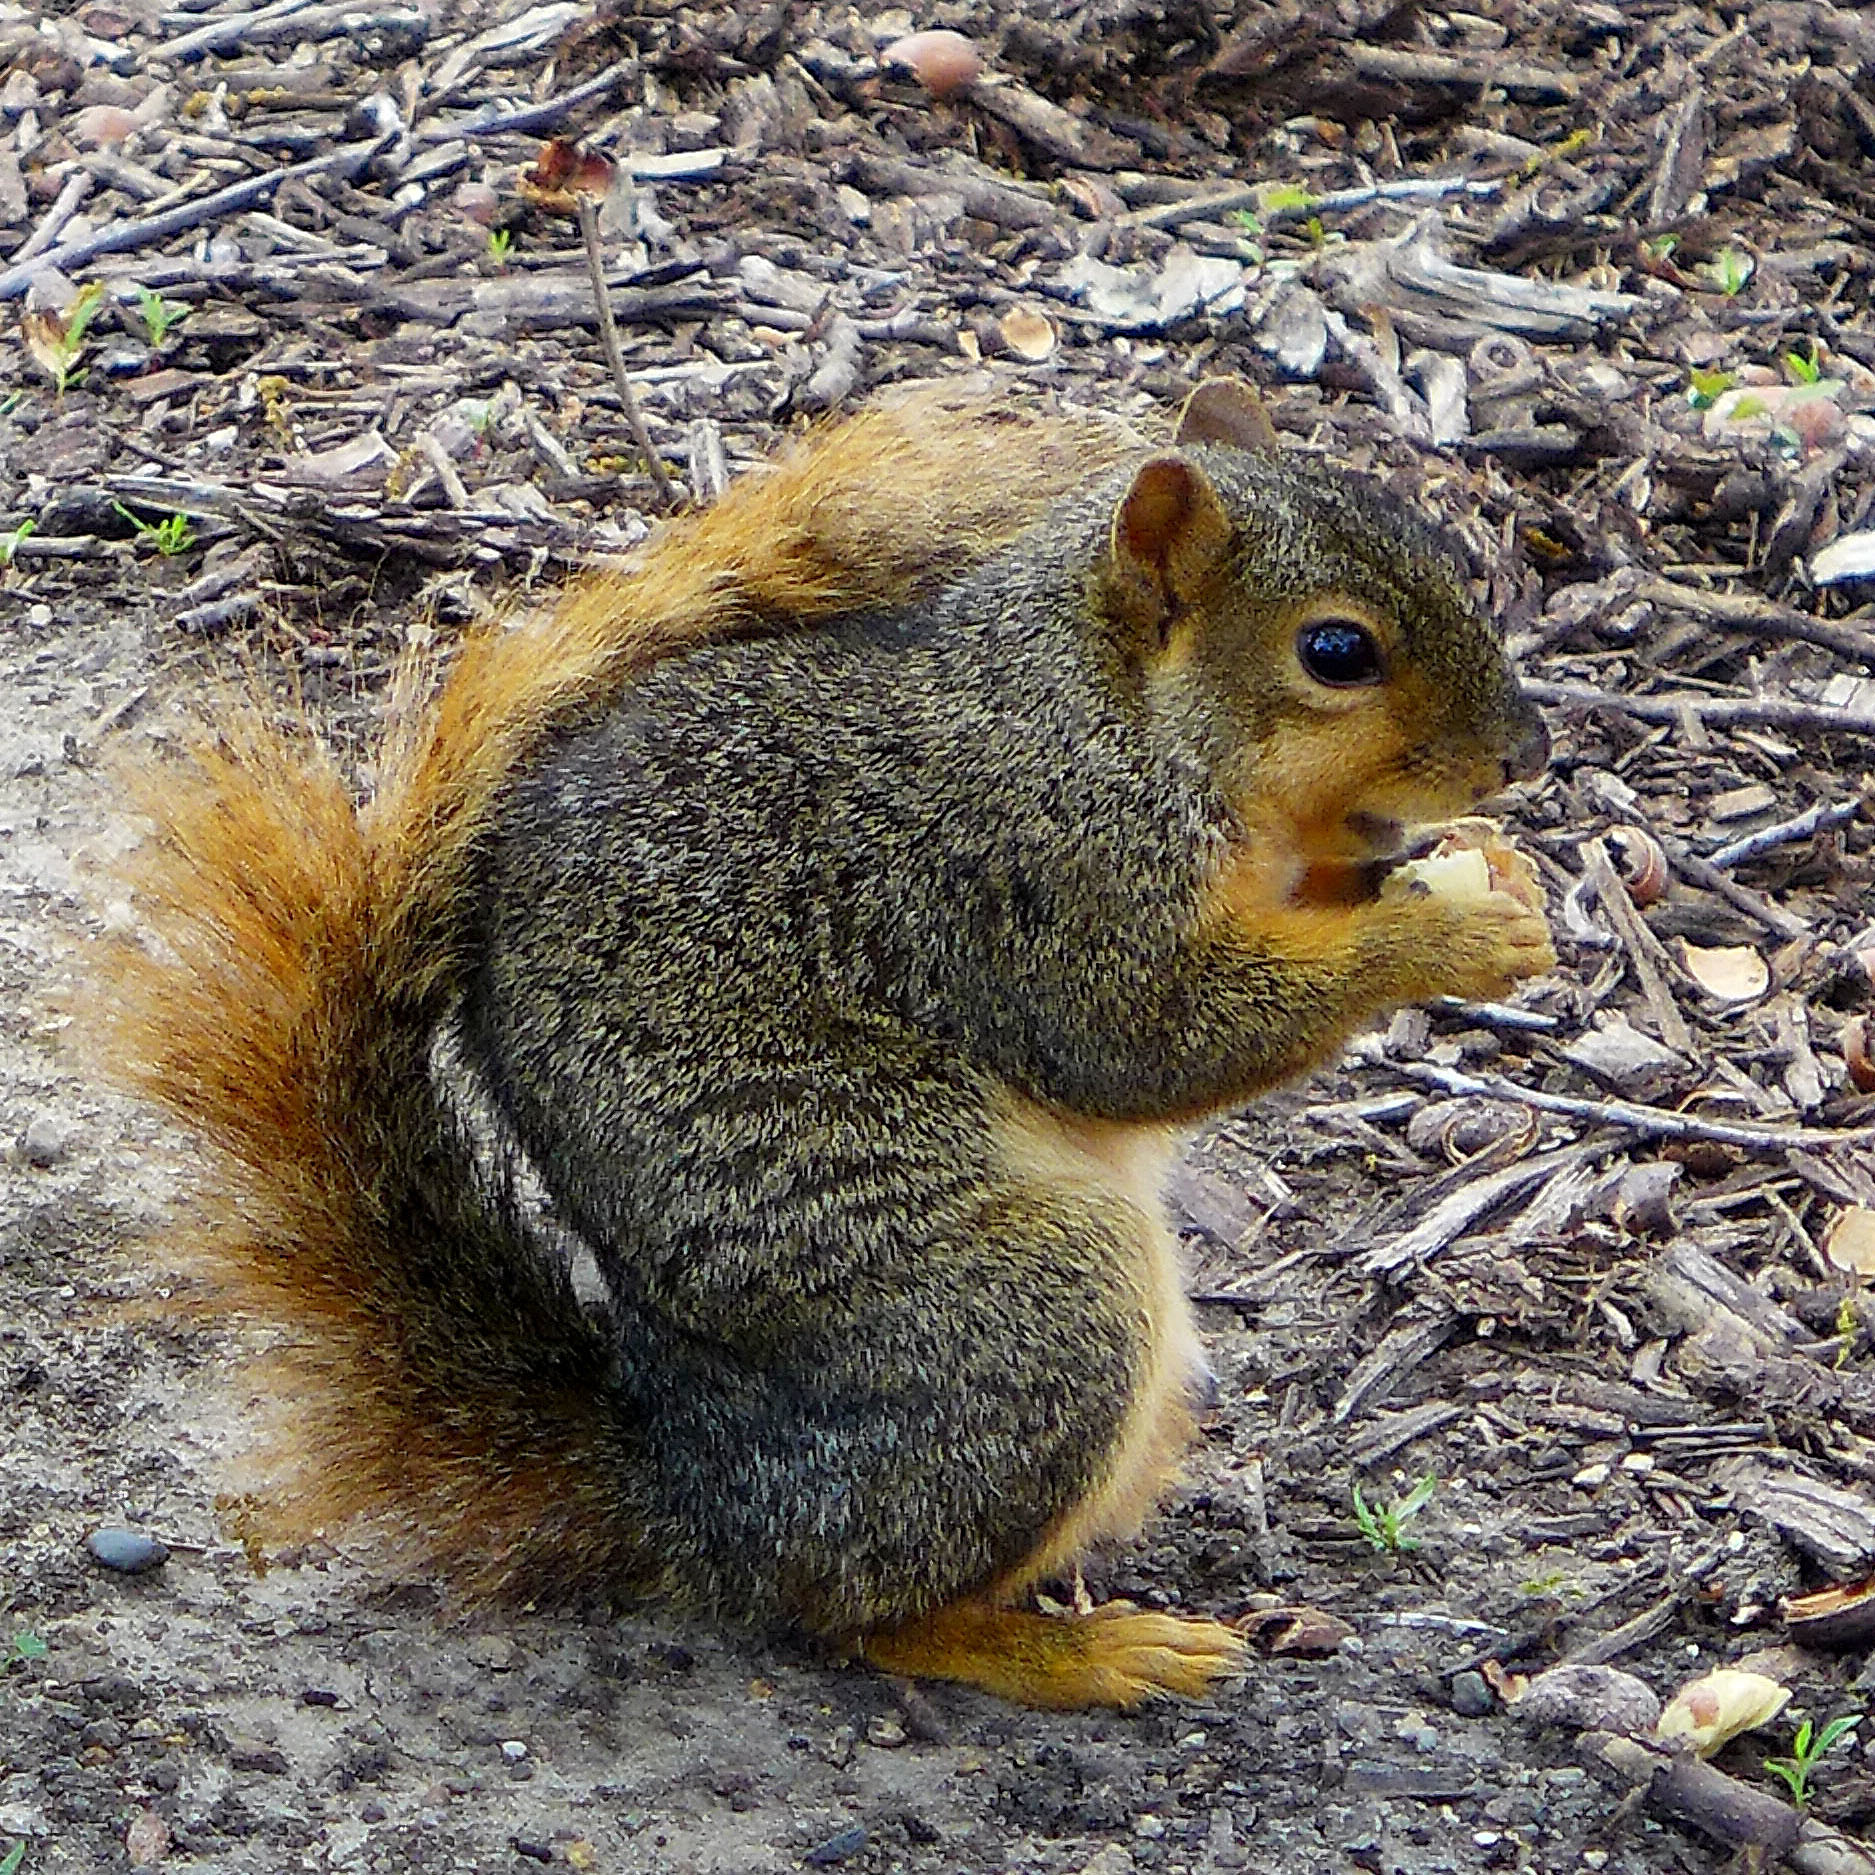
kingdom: Animalia
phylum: Chordata
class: Mammalia
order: Rodentia
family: Sciuridae
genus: Sciurus
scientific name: Sciurus niger
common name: Fox squirrel
